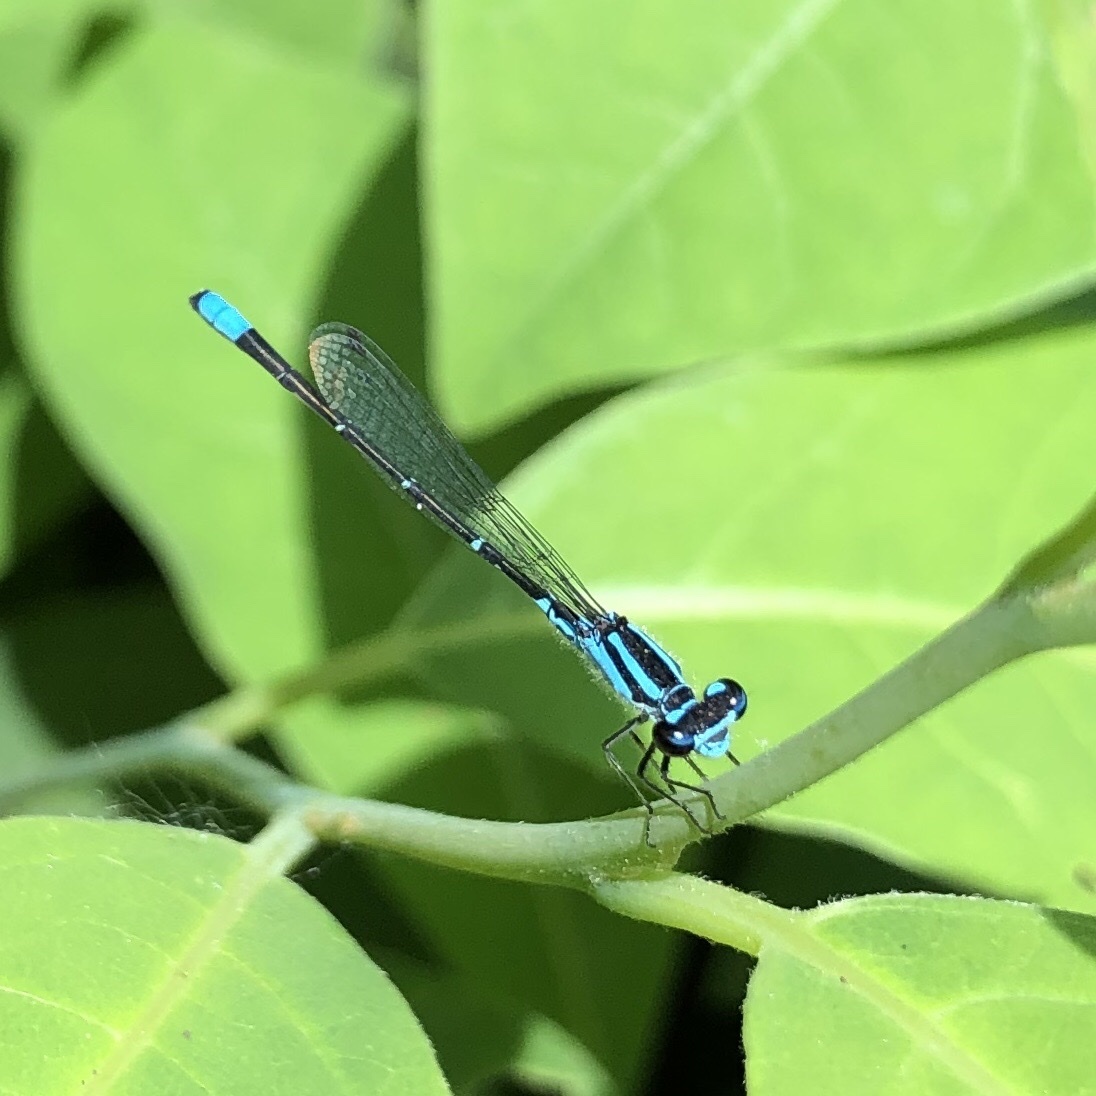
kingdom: Animalia
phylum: Arthropoda
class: Insecta
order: Odonata
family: Coenagrionidae
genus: Enallagma
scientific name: Enallagma geminatum
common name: Skimming bluet
